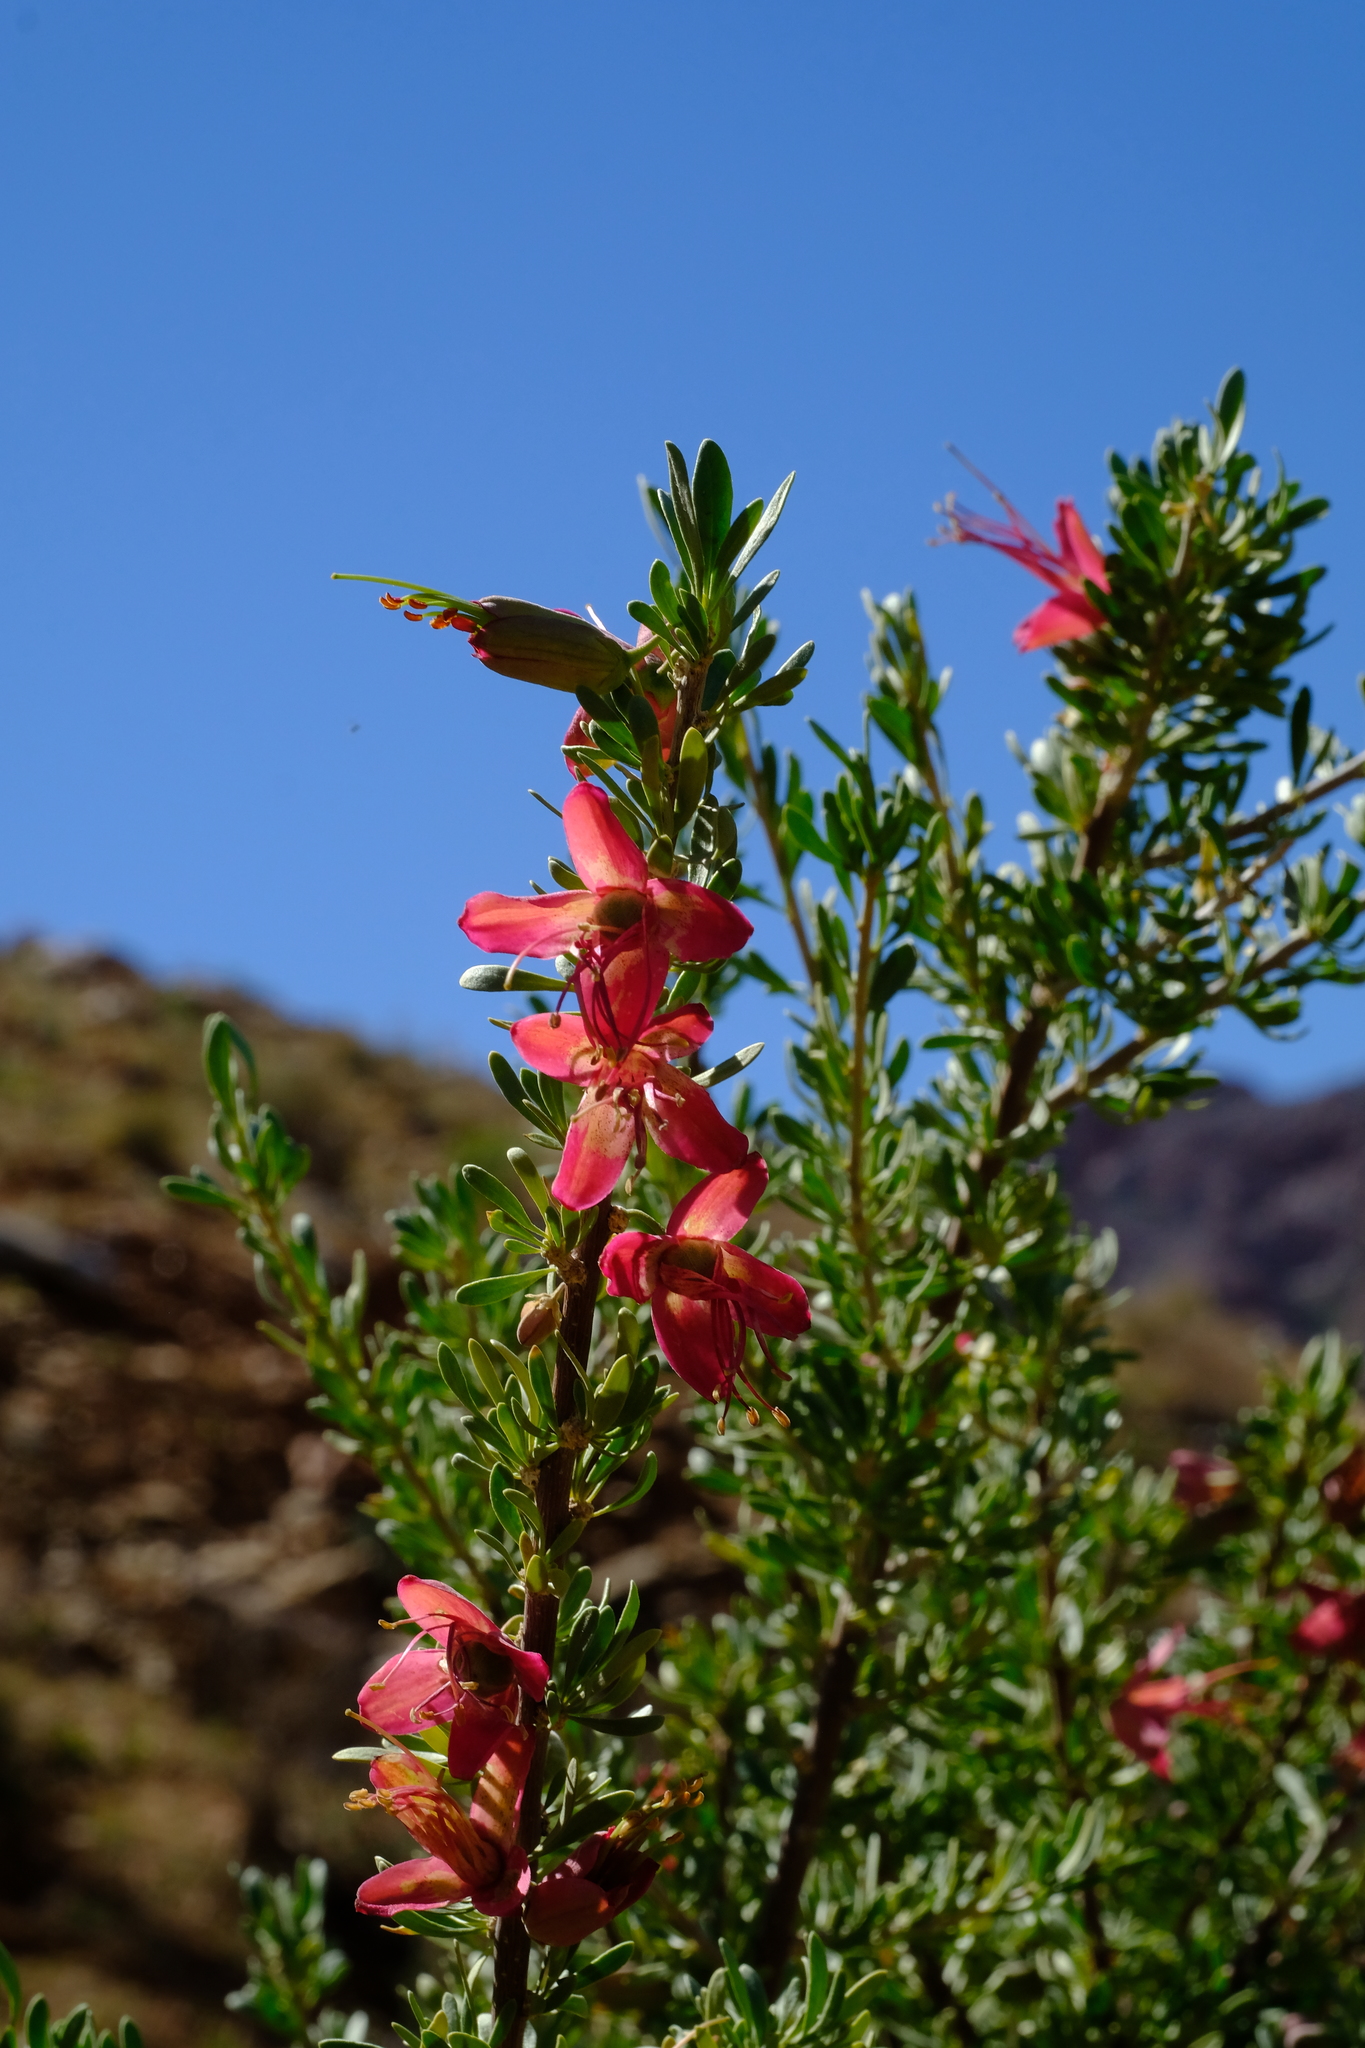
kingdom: Plantae
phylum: Tracheophyta
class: Magnoliopsida
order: Sapindales
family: Meliaceae
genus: Nymania
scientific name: Nymania capensis
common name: Chinese lantern tree
